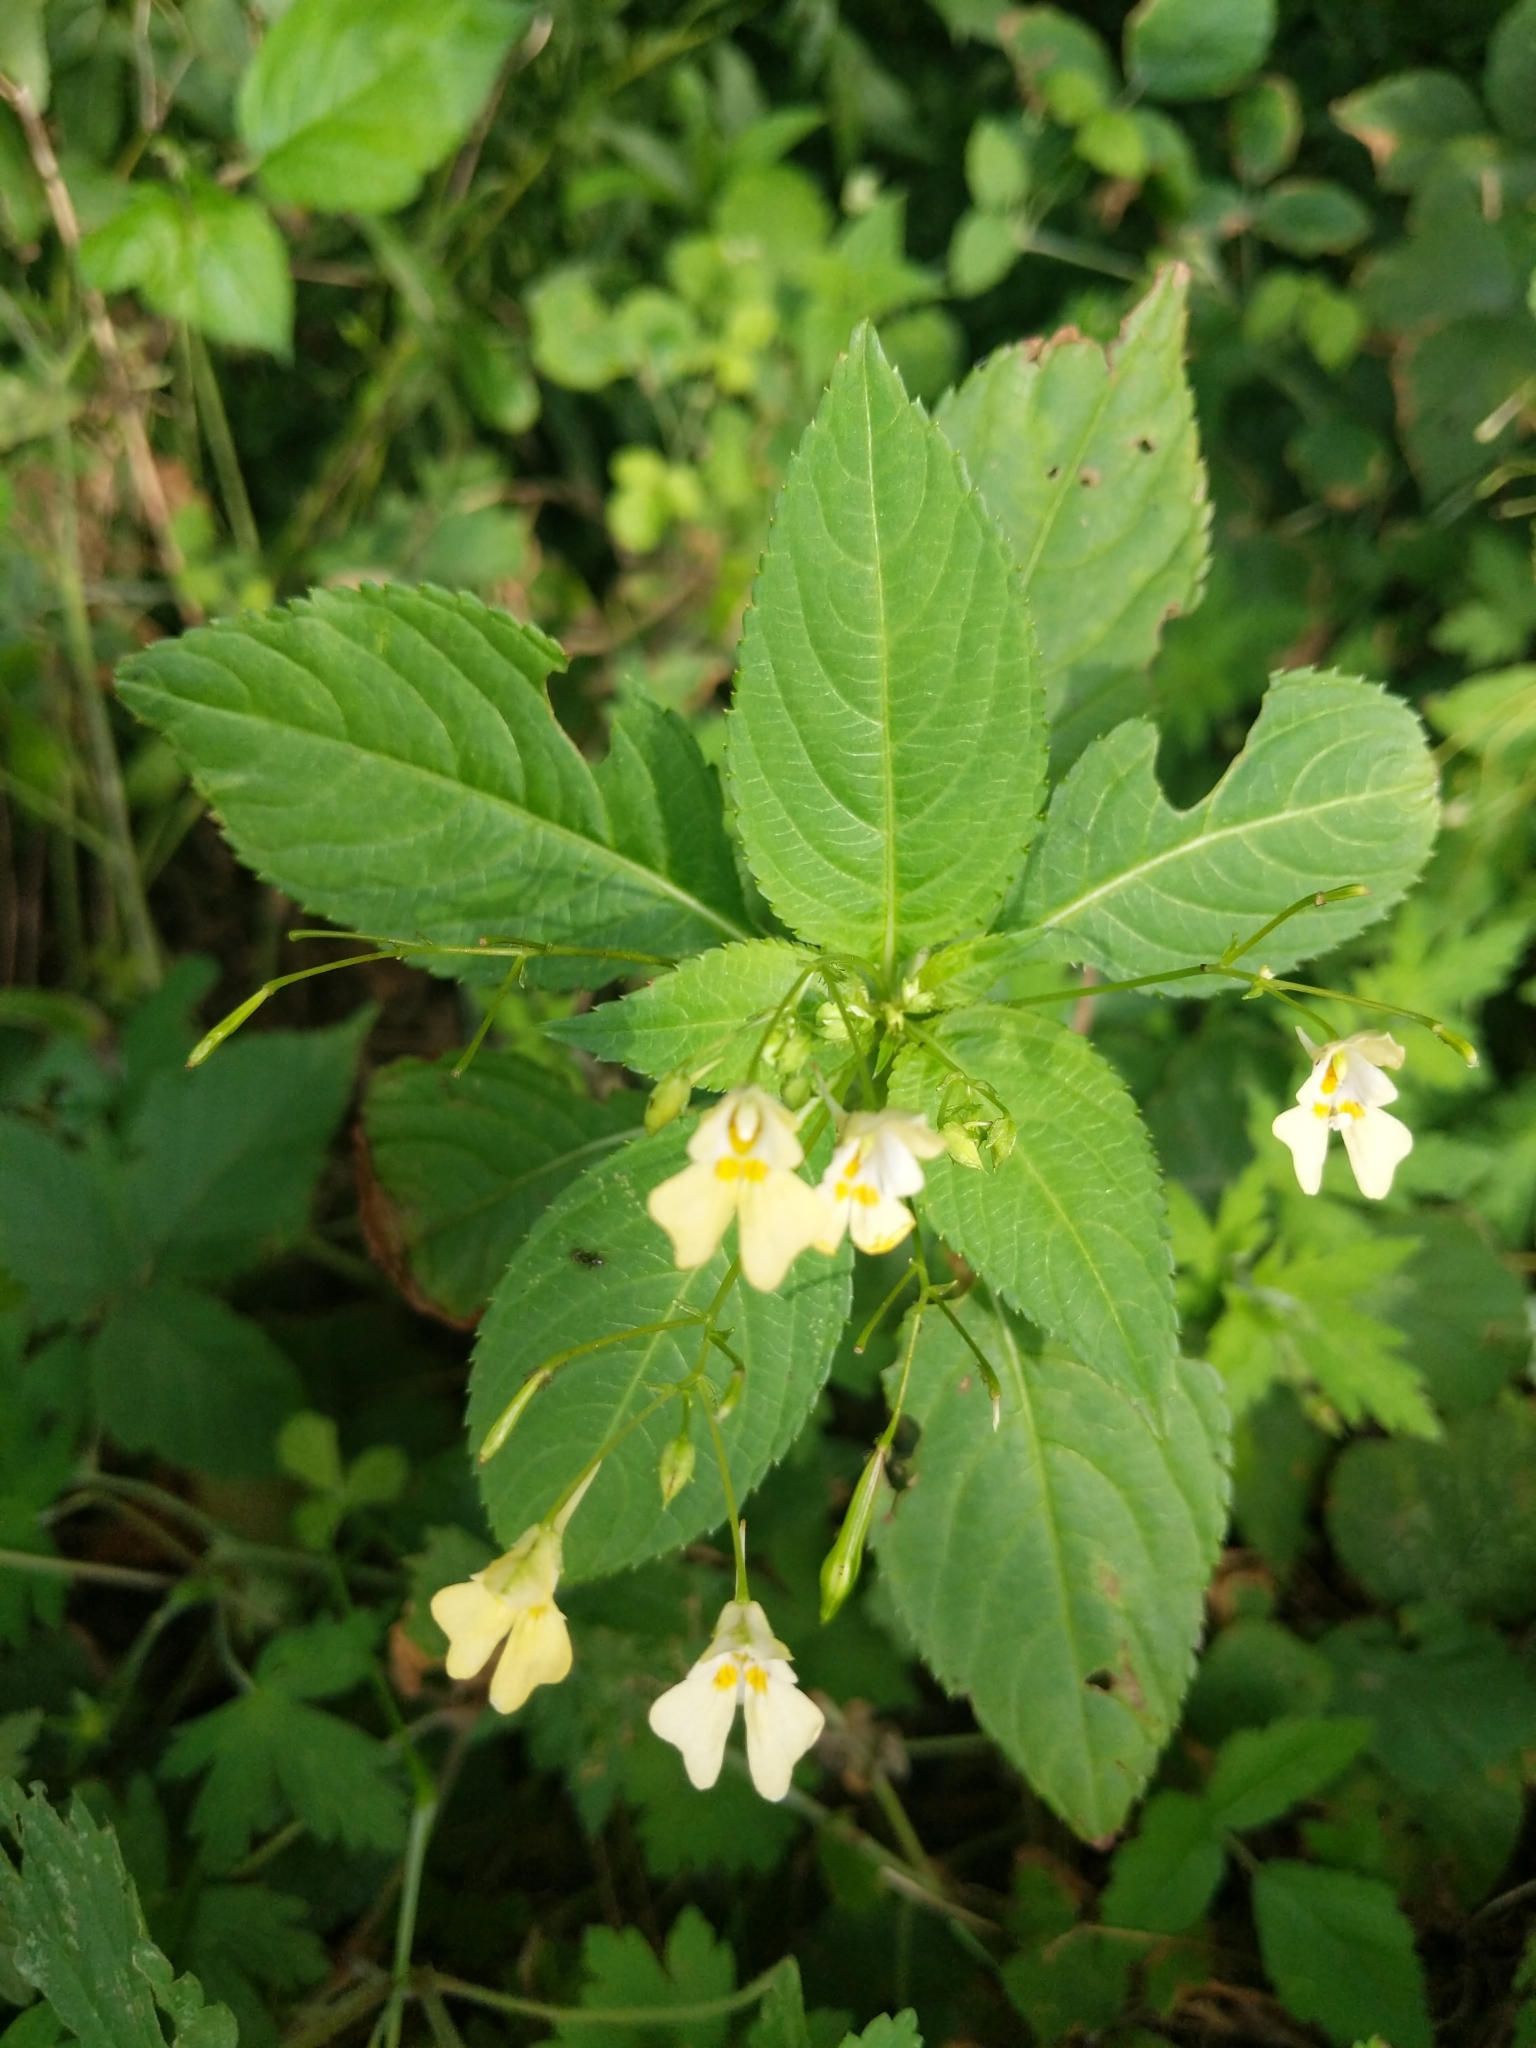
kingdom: Plantae
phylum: Tracheophyta
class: Magnoliopsida
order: Ericales
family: Balsaminaceae
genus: Impatiens
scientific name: Impatiens parviflora
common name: Small balsam
